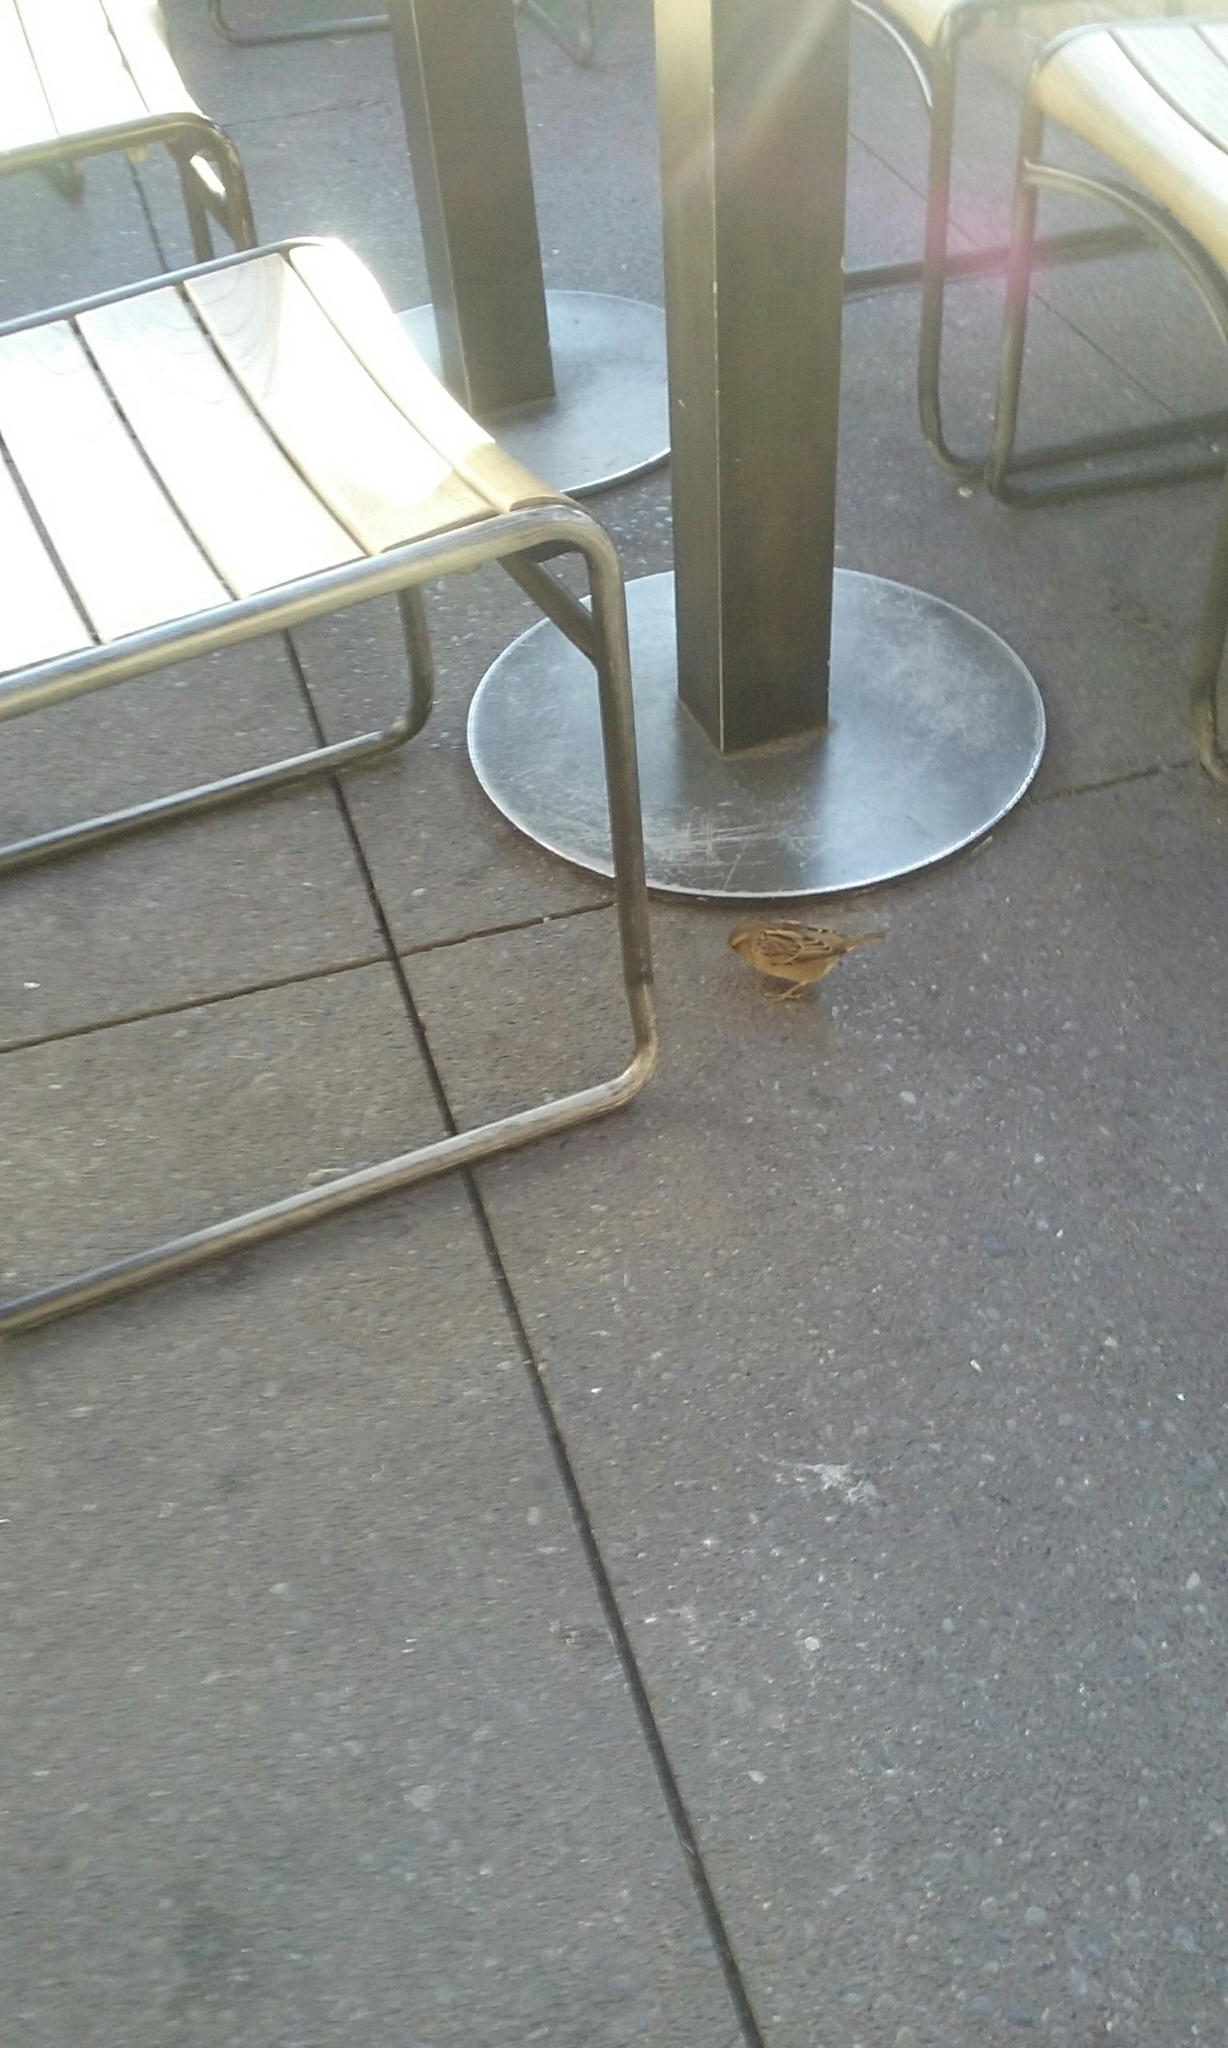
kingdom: Animalia
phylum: Chordata
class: Aves
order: Passeriformes
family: Passeridae
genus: Passer
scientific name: Passer domesticus
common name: House sparrow
